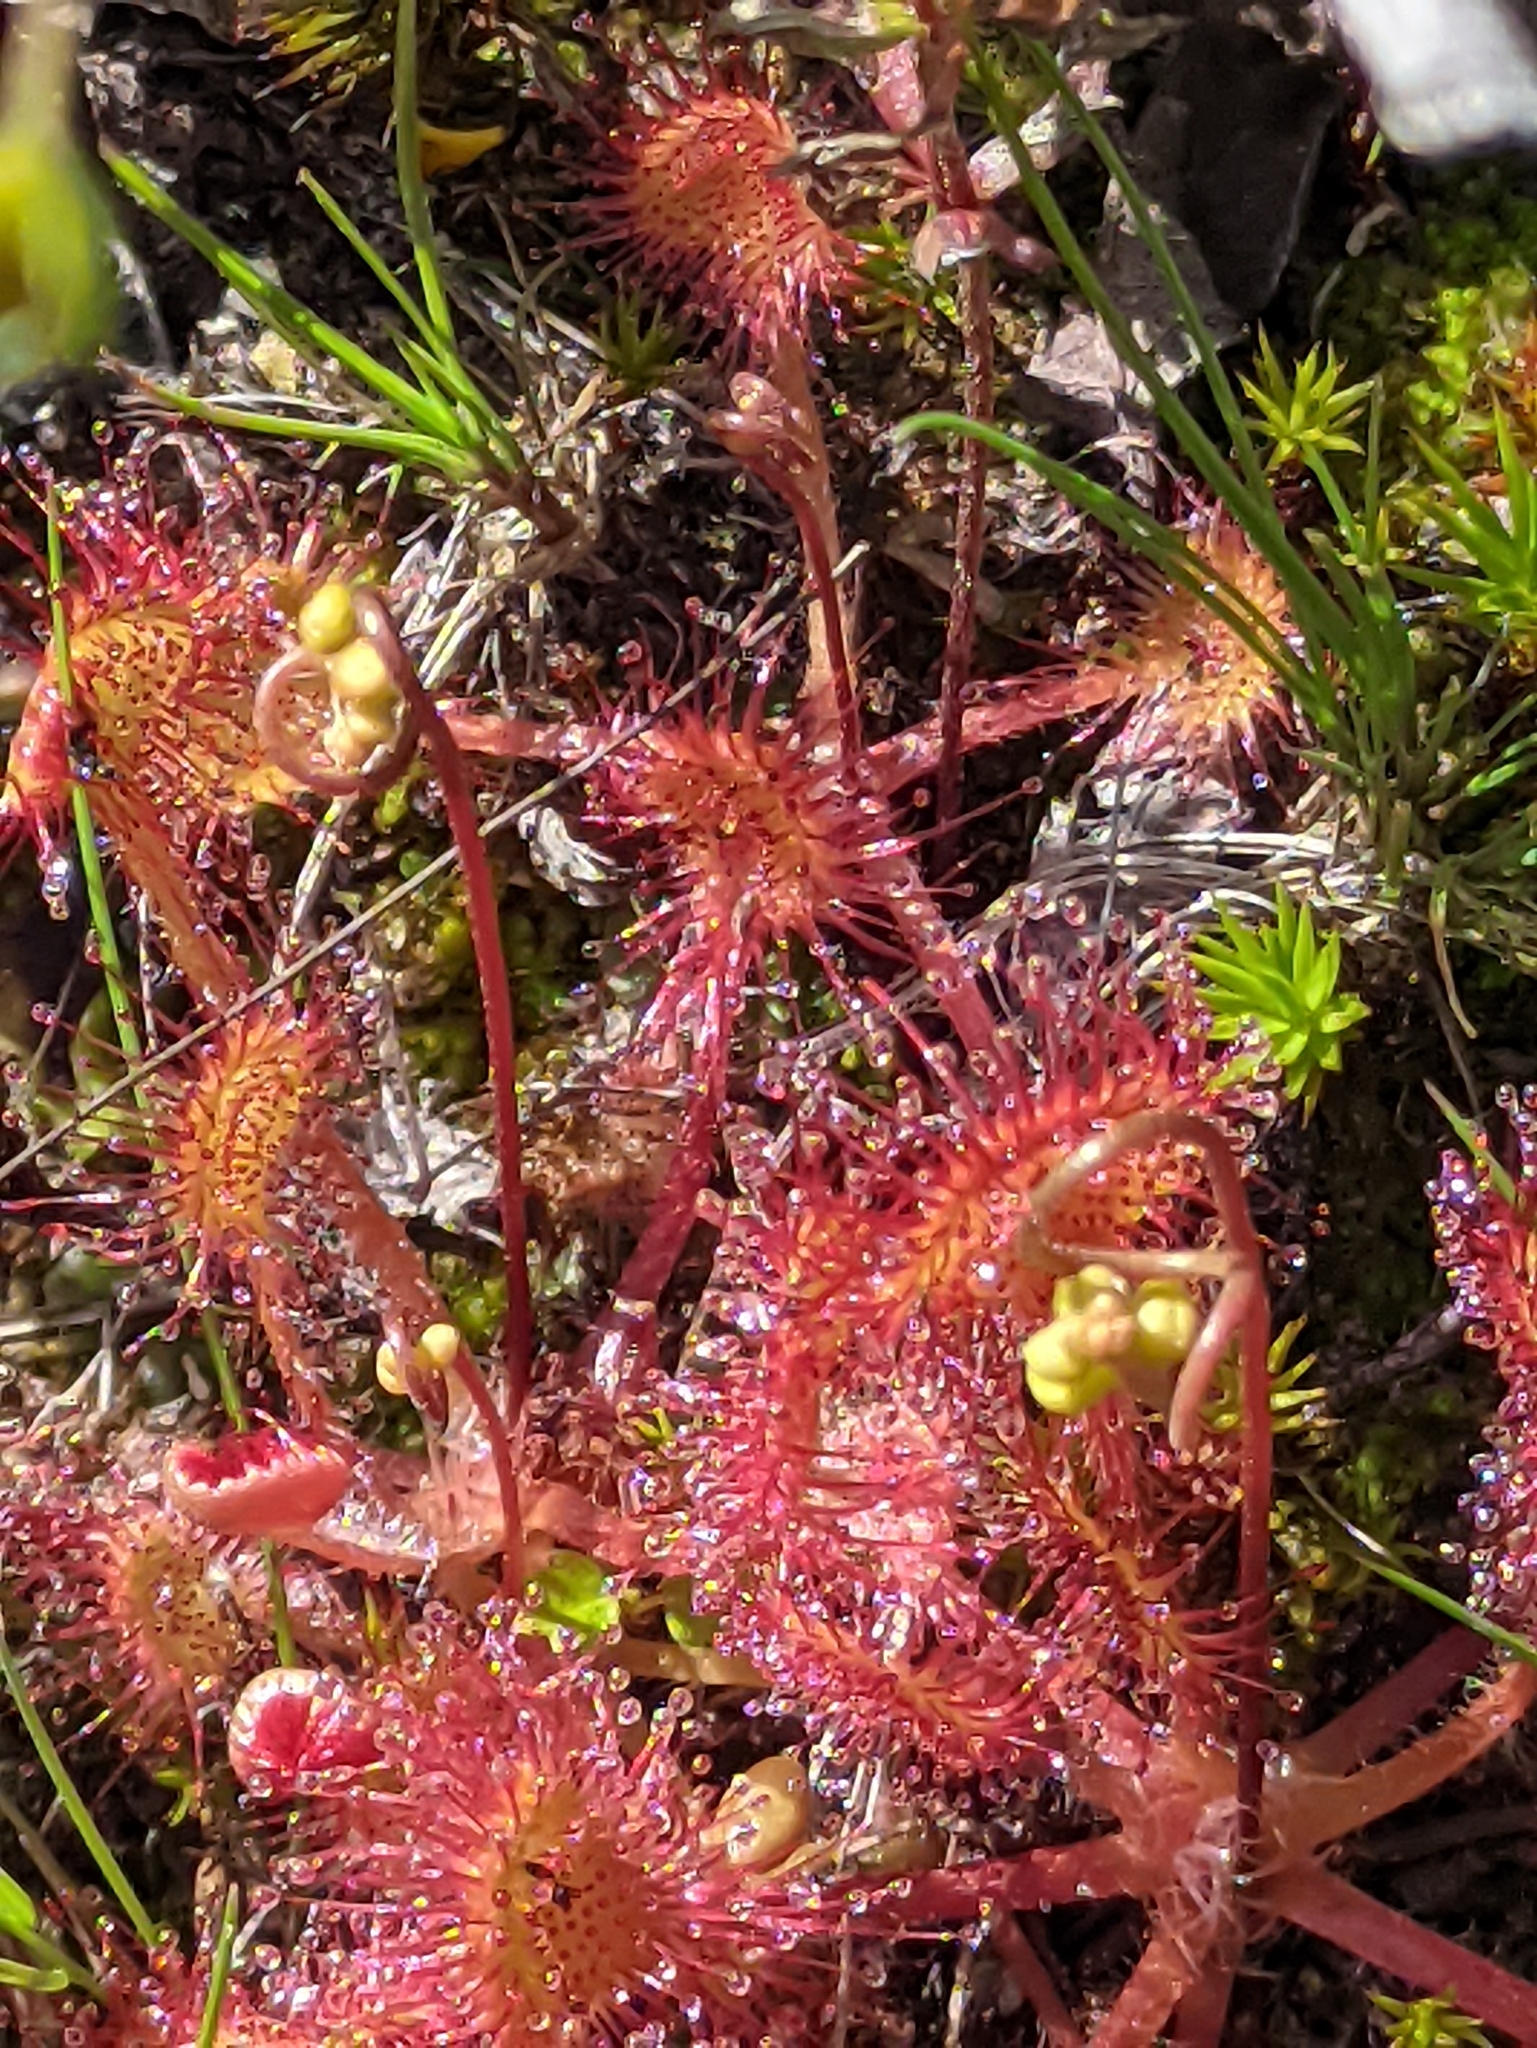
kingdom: Plantae
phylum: Tracheophyta
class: Magnoliopsida
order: Caryophyllales
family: Droseraceae
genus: Drosera
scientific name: Drosera rotundifolia
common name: Round-leaved sundew
